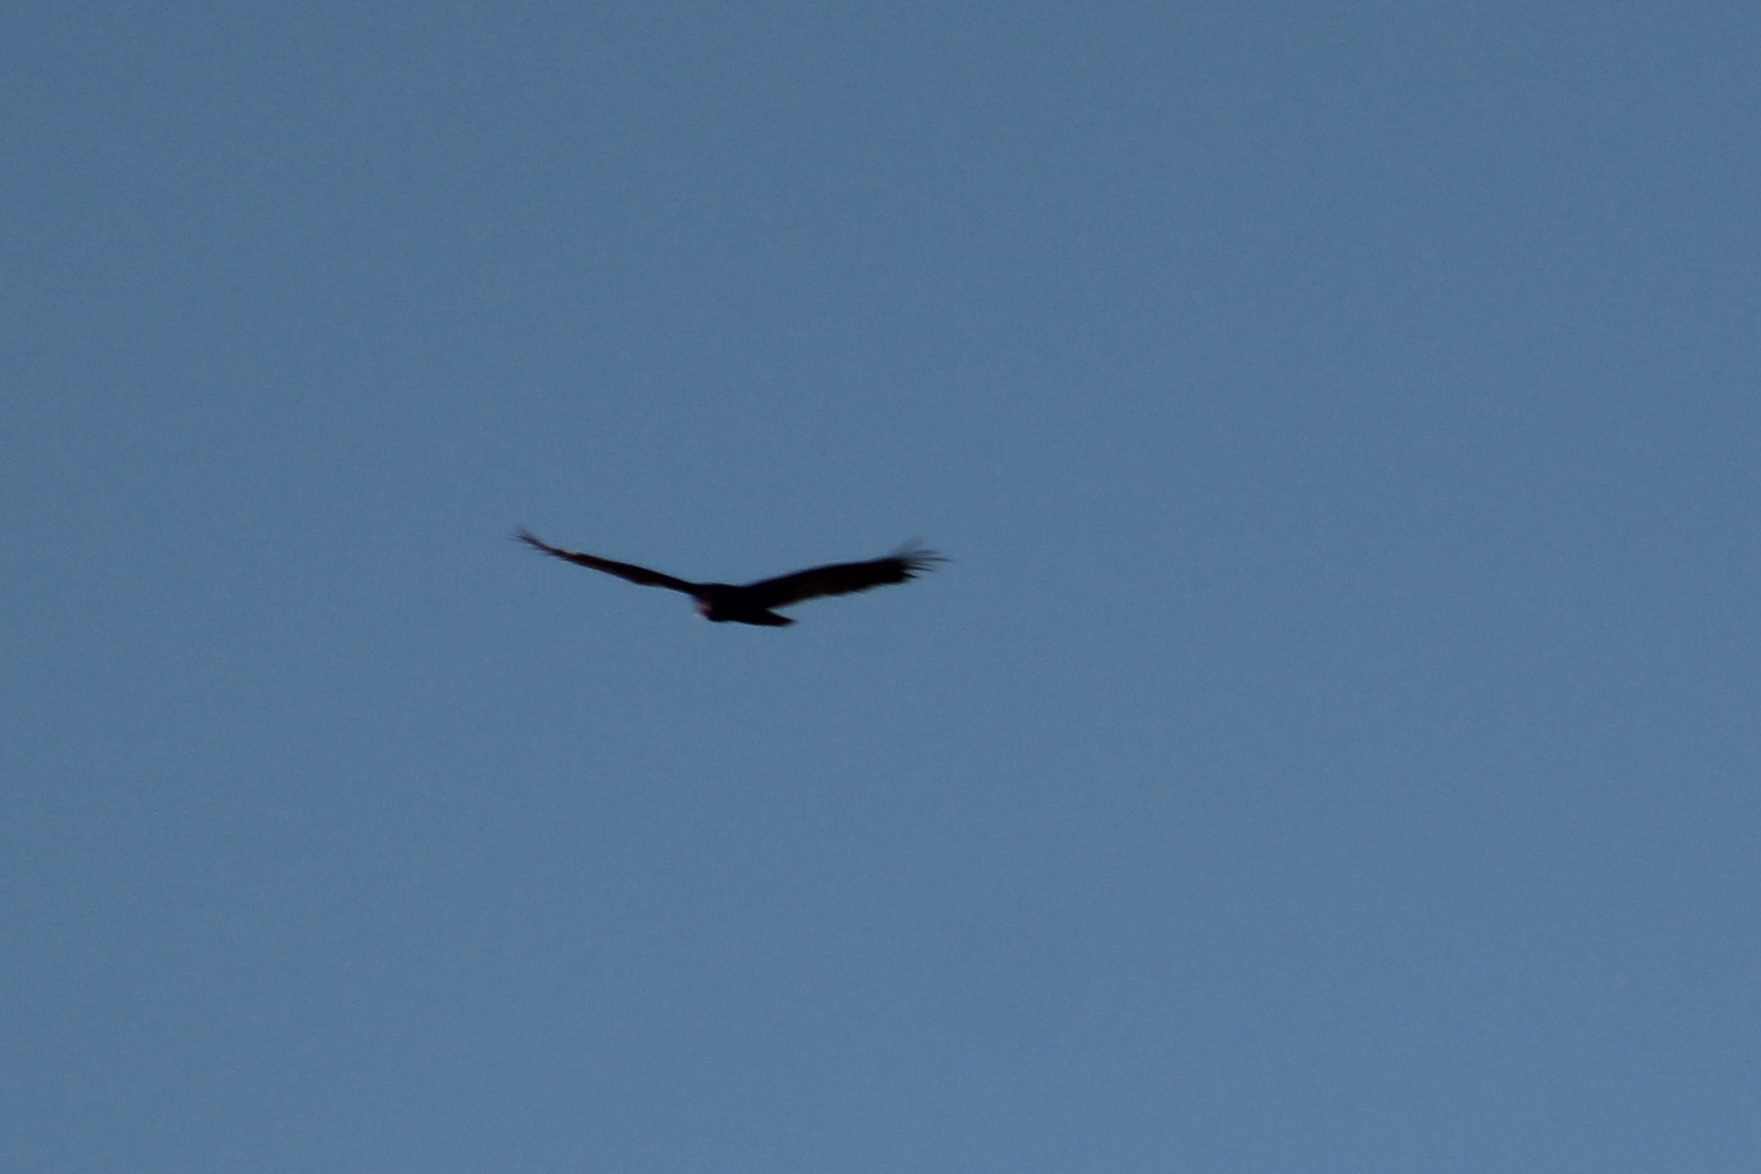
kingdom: Animalia
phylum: Chordata
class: Aves
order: Accipitriformes
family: Cathartidae
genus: Cathartes
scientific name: Cathartes aura
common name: Turkey vulture
